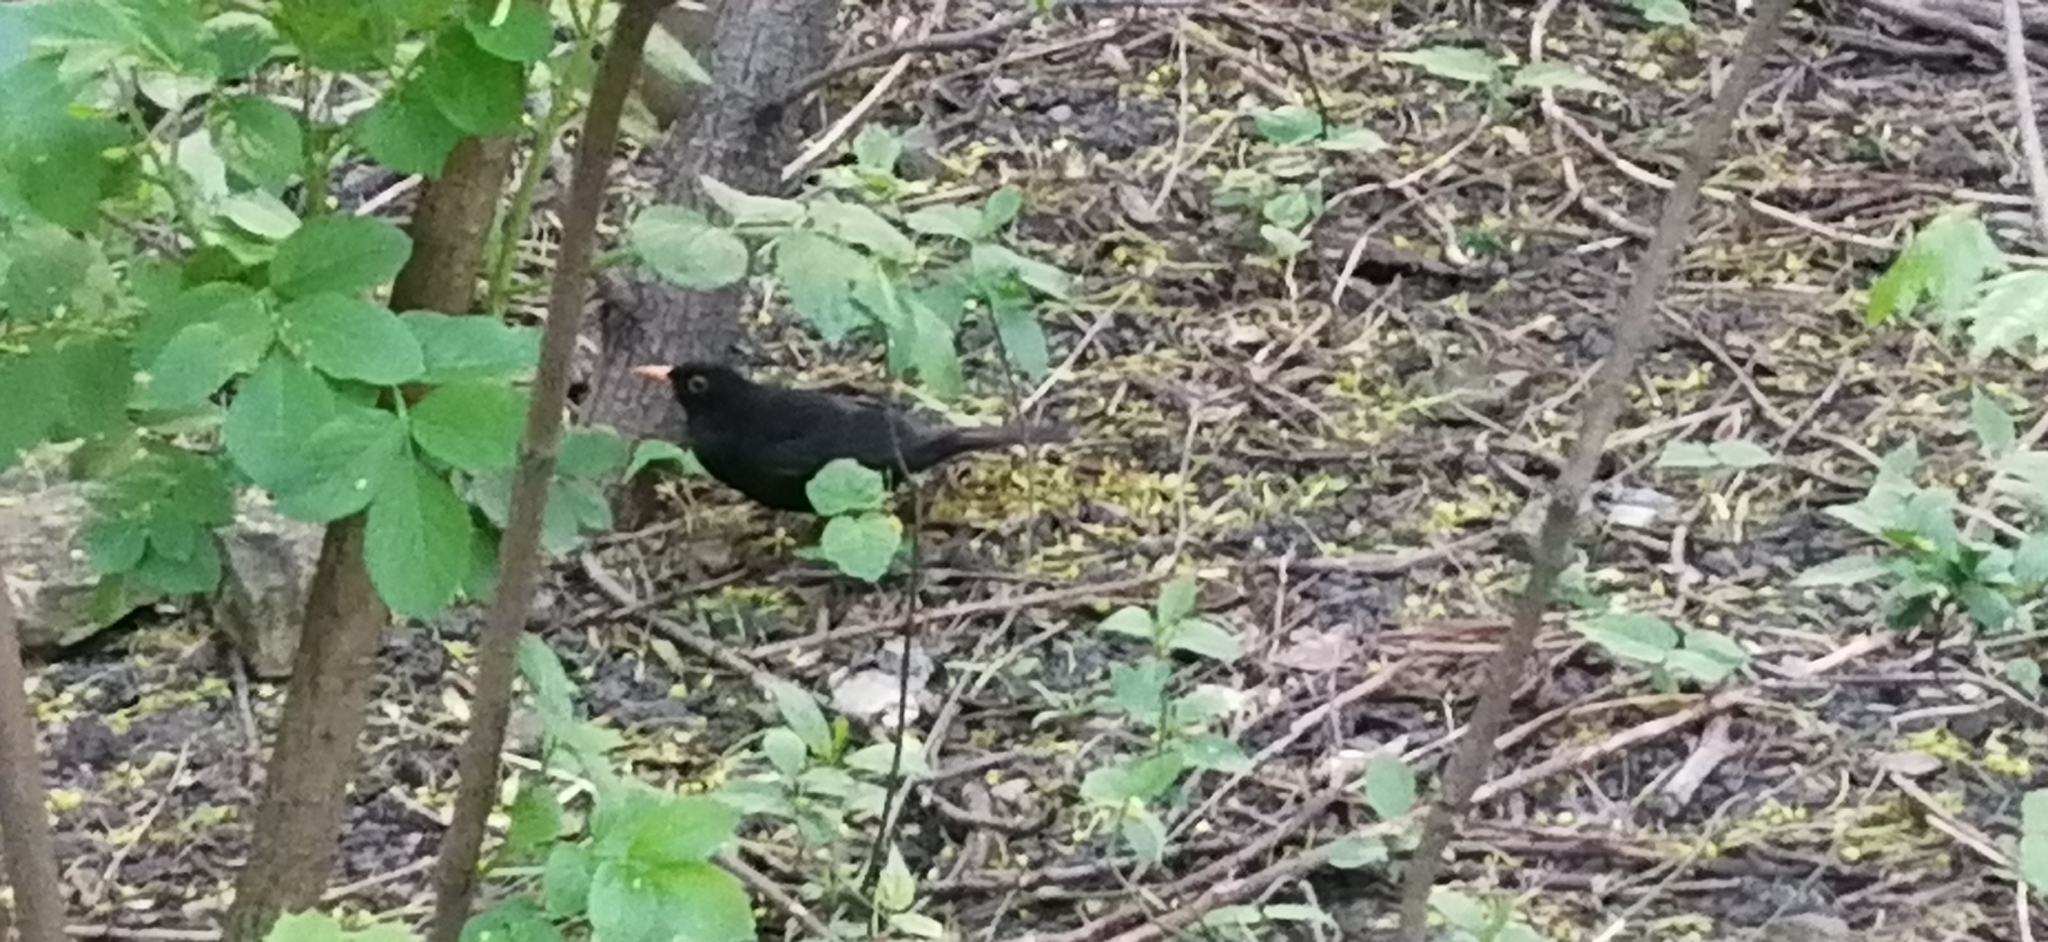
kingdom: Animalia
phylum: Chordata
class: Aves
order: Passeriformes
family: Turdidae
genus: Turdus
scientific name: Turdus merula
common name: Common blackbird
